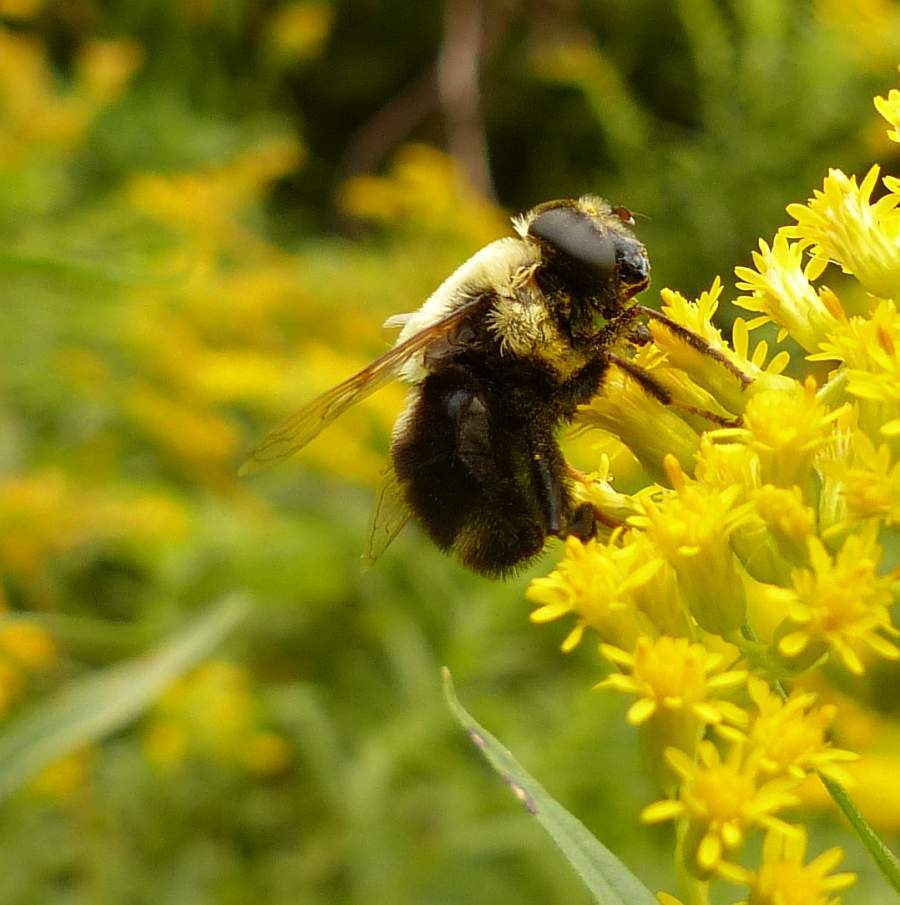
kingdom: Animalia
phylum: Arthropoda
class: Insecta
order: Diptera
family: Syrphidae
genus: Eristalis
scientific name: Eristalis flavipes
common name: Orange-legged drone fly
